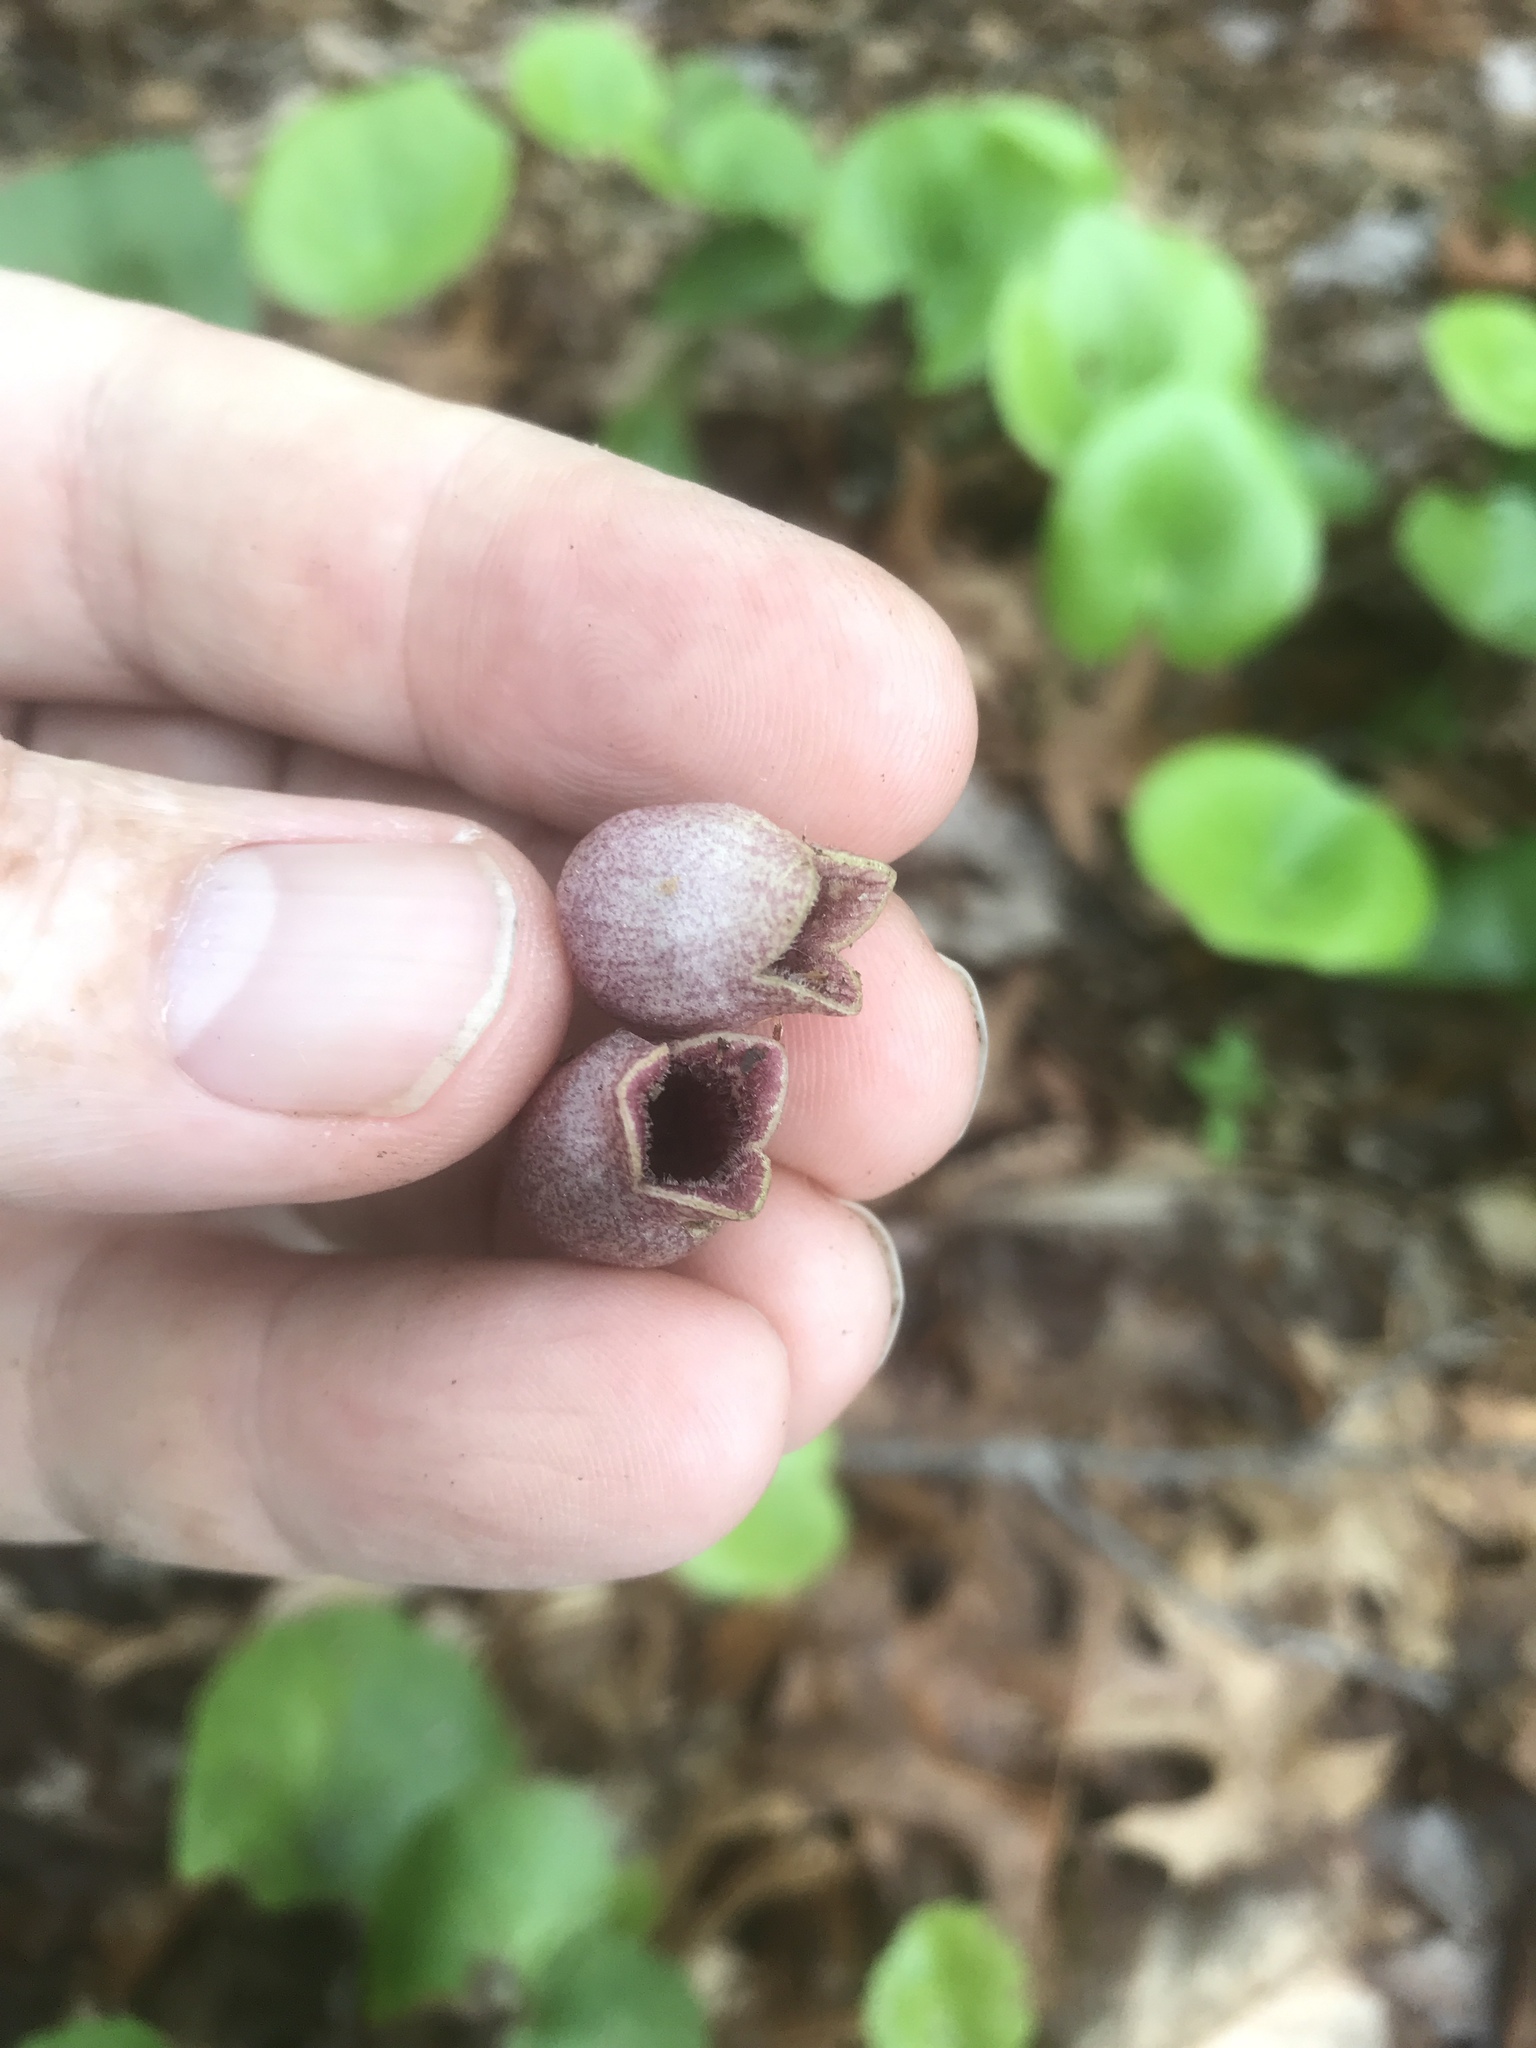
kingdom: Plantae
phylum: Tracheophyta
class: Magnoliopsida
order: Piperales
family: Aristolochiaceae
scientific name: Aristolochiaceae
